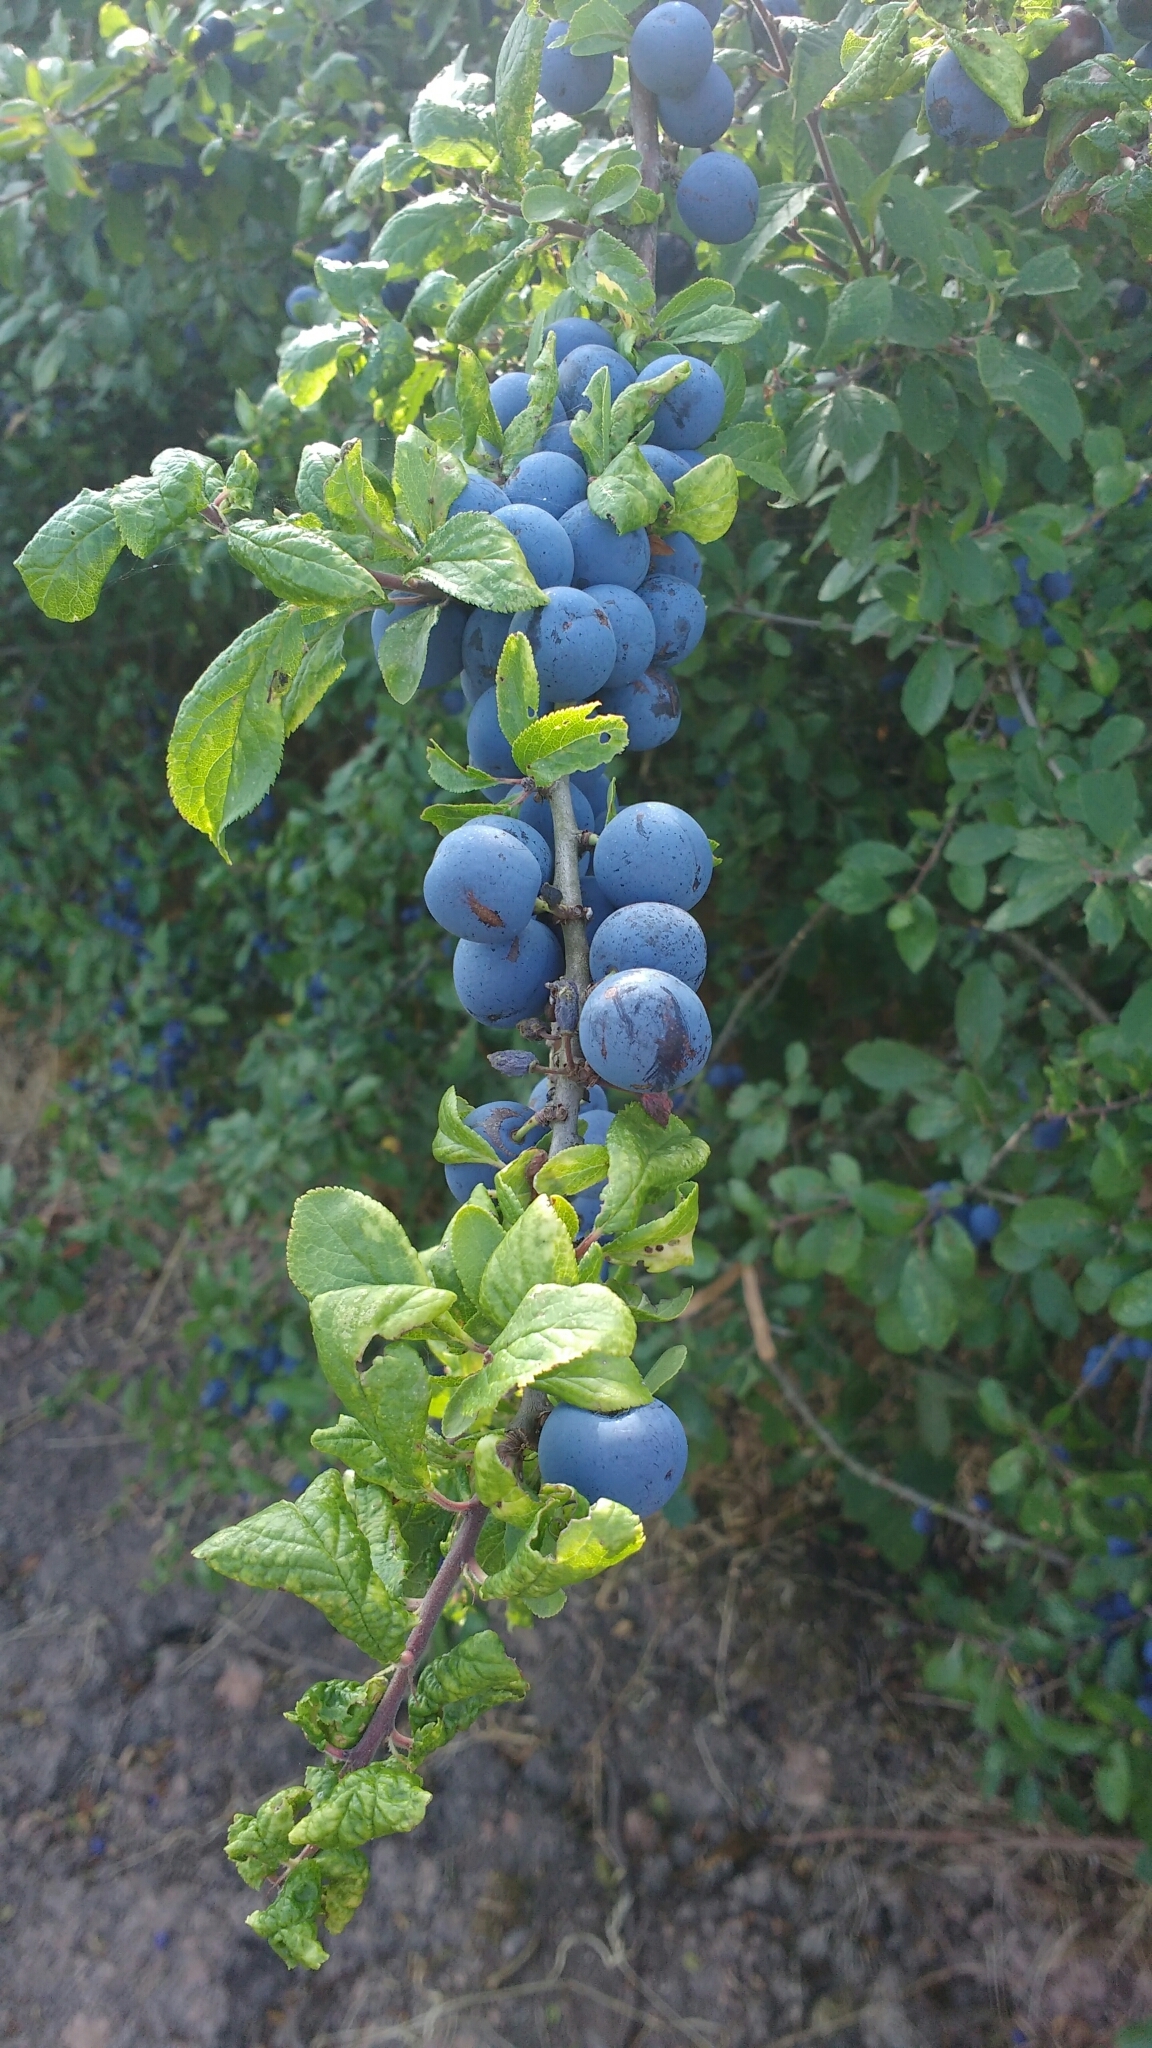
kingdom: Plantae
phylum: Tracheophyta
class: Magnoliopsida
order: Rosales
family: Rosaceae
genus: Prunus
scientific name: Prunus spinosa
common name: Blackthorn
